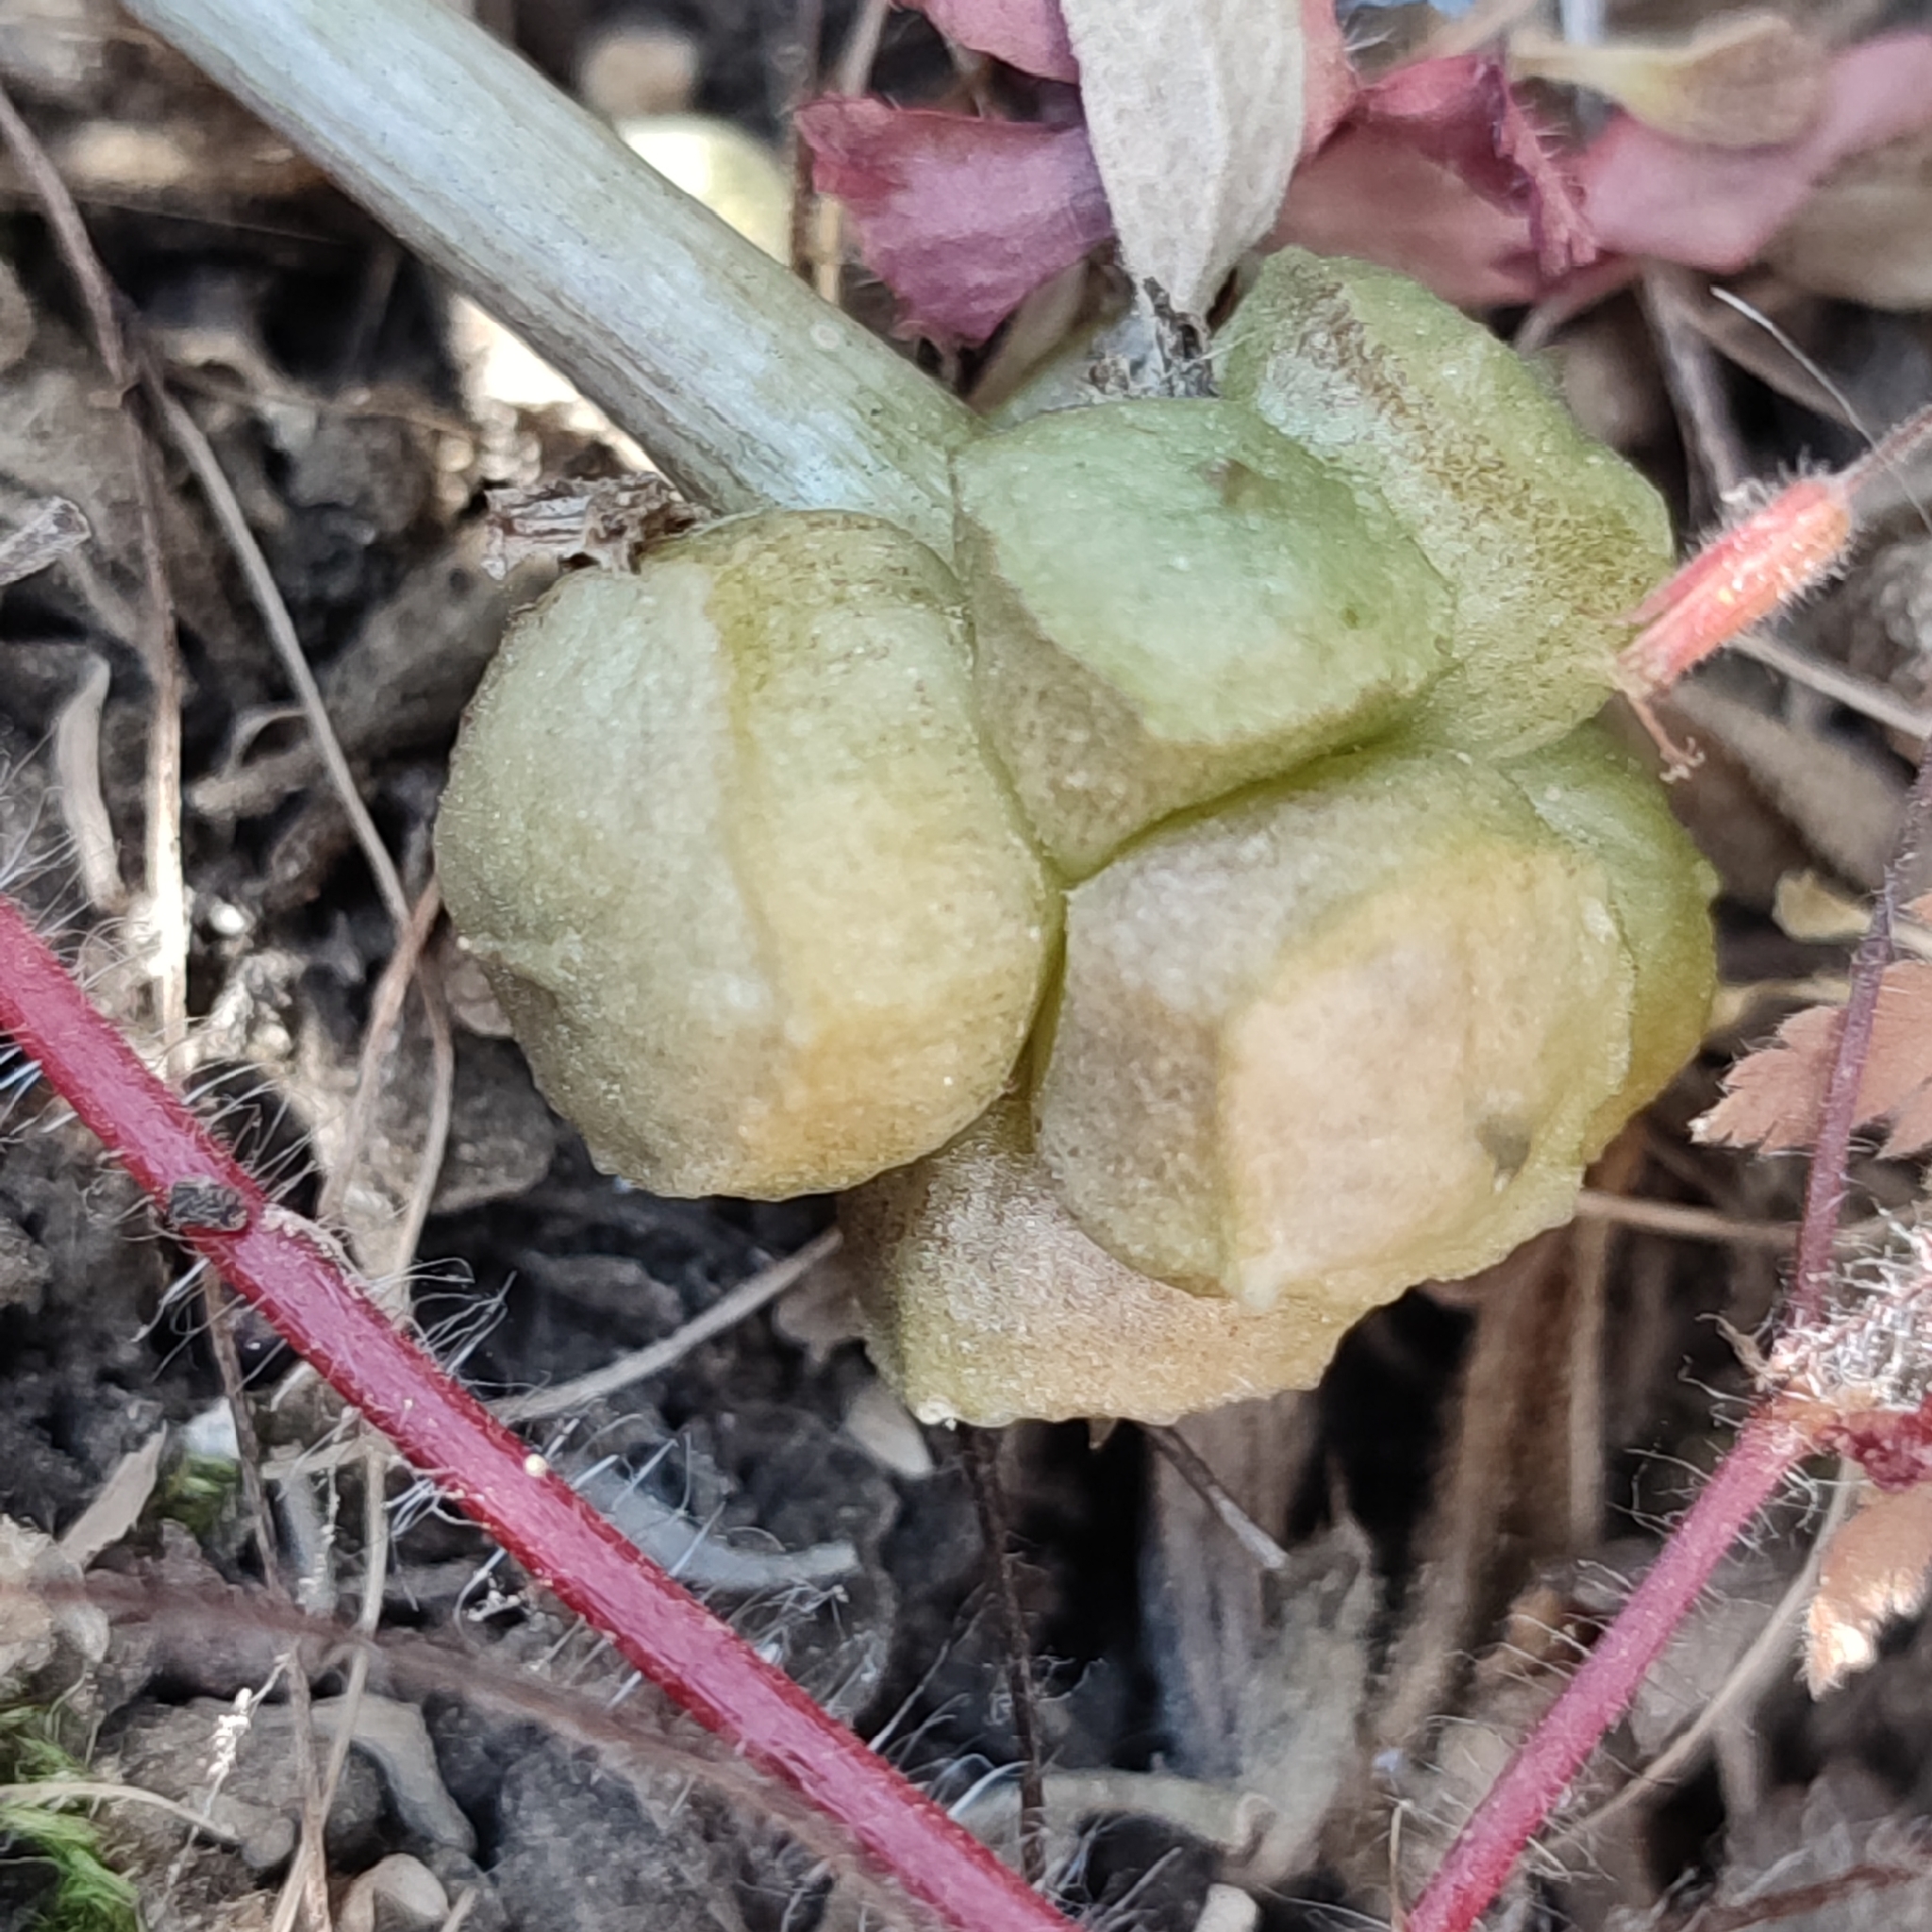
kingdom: Plantae
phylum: Tracheophyta
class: Liliopsida
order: Alismatales
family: Araceae
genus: Arisarum
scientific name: Arisarum vulgare
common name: Common arisarum
